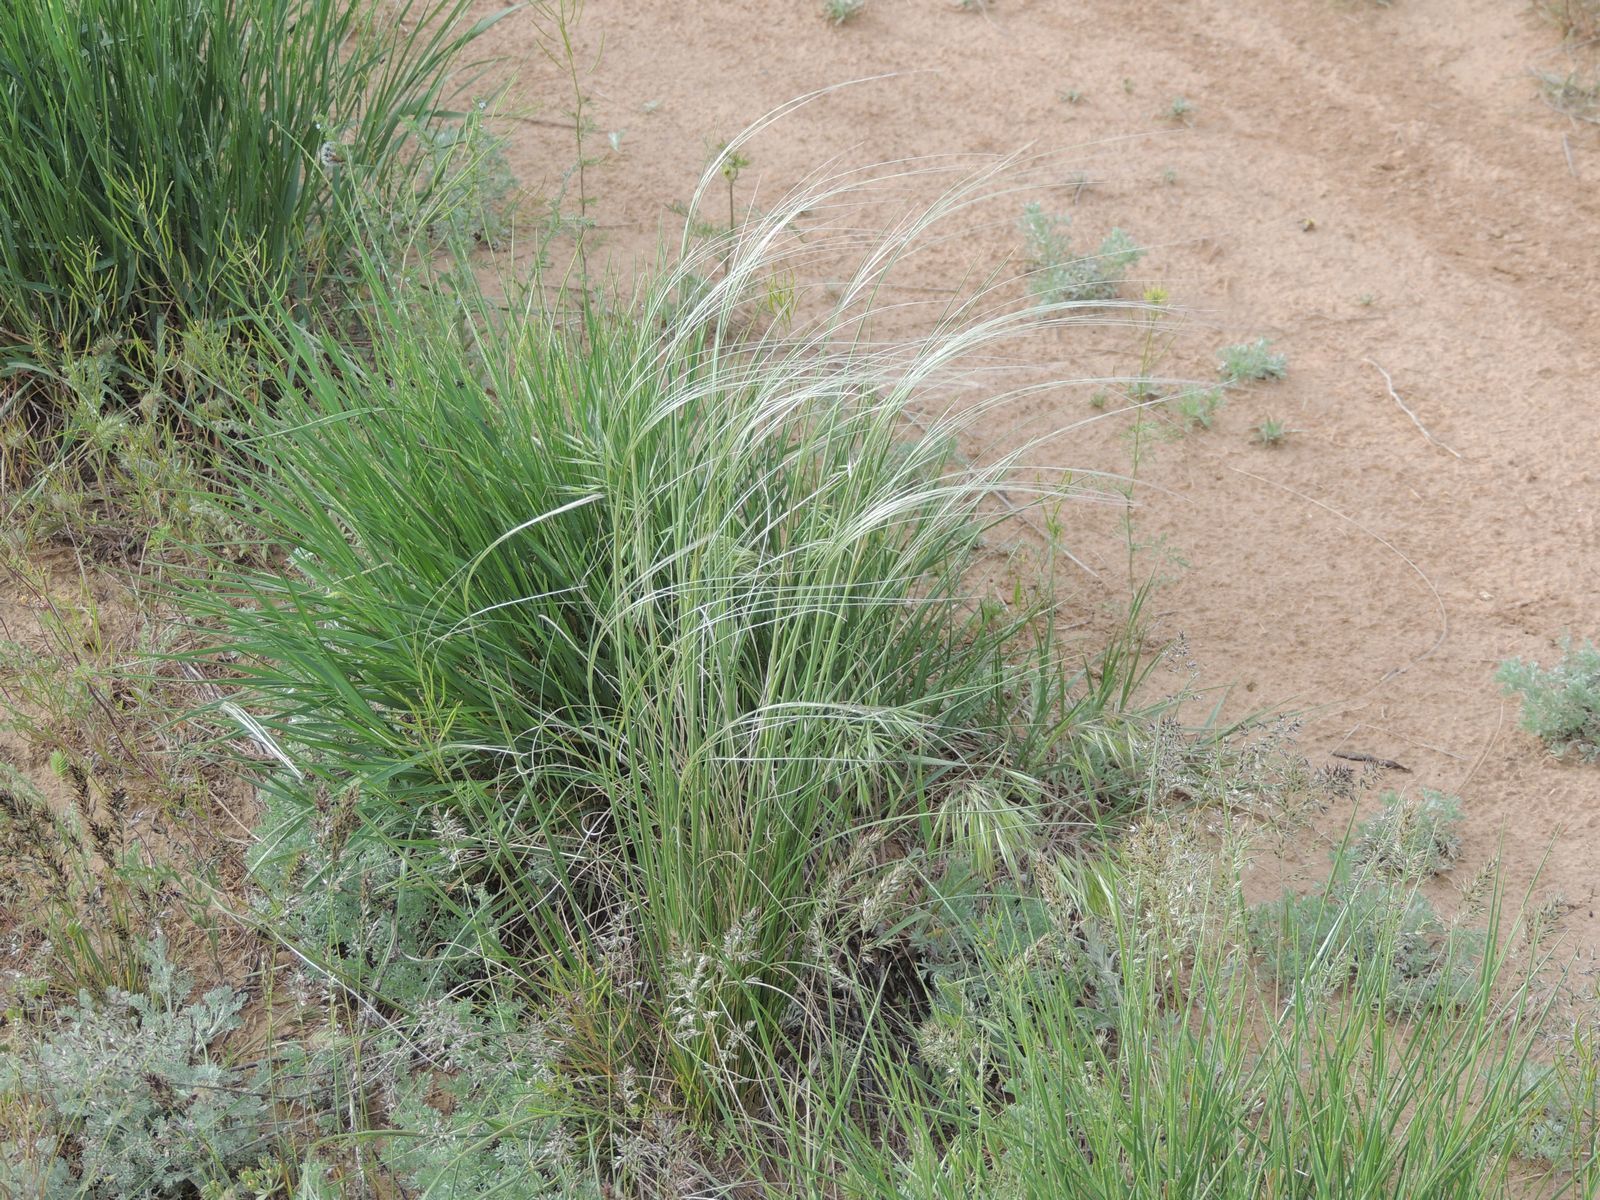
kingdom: Plantae
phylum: Tracheophyta
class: Liliopsida
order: Poales
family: Poaceae
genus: Stipa
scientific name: Stipa lessingiana
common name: Needle grass
